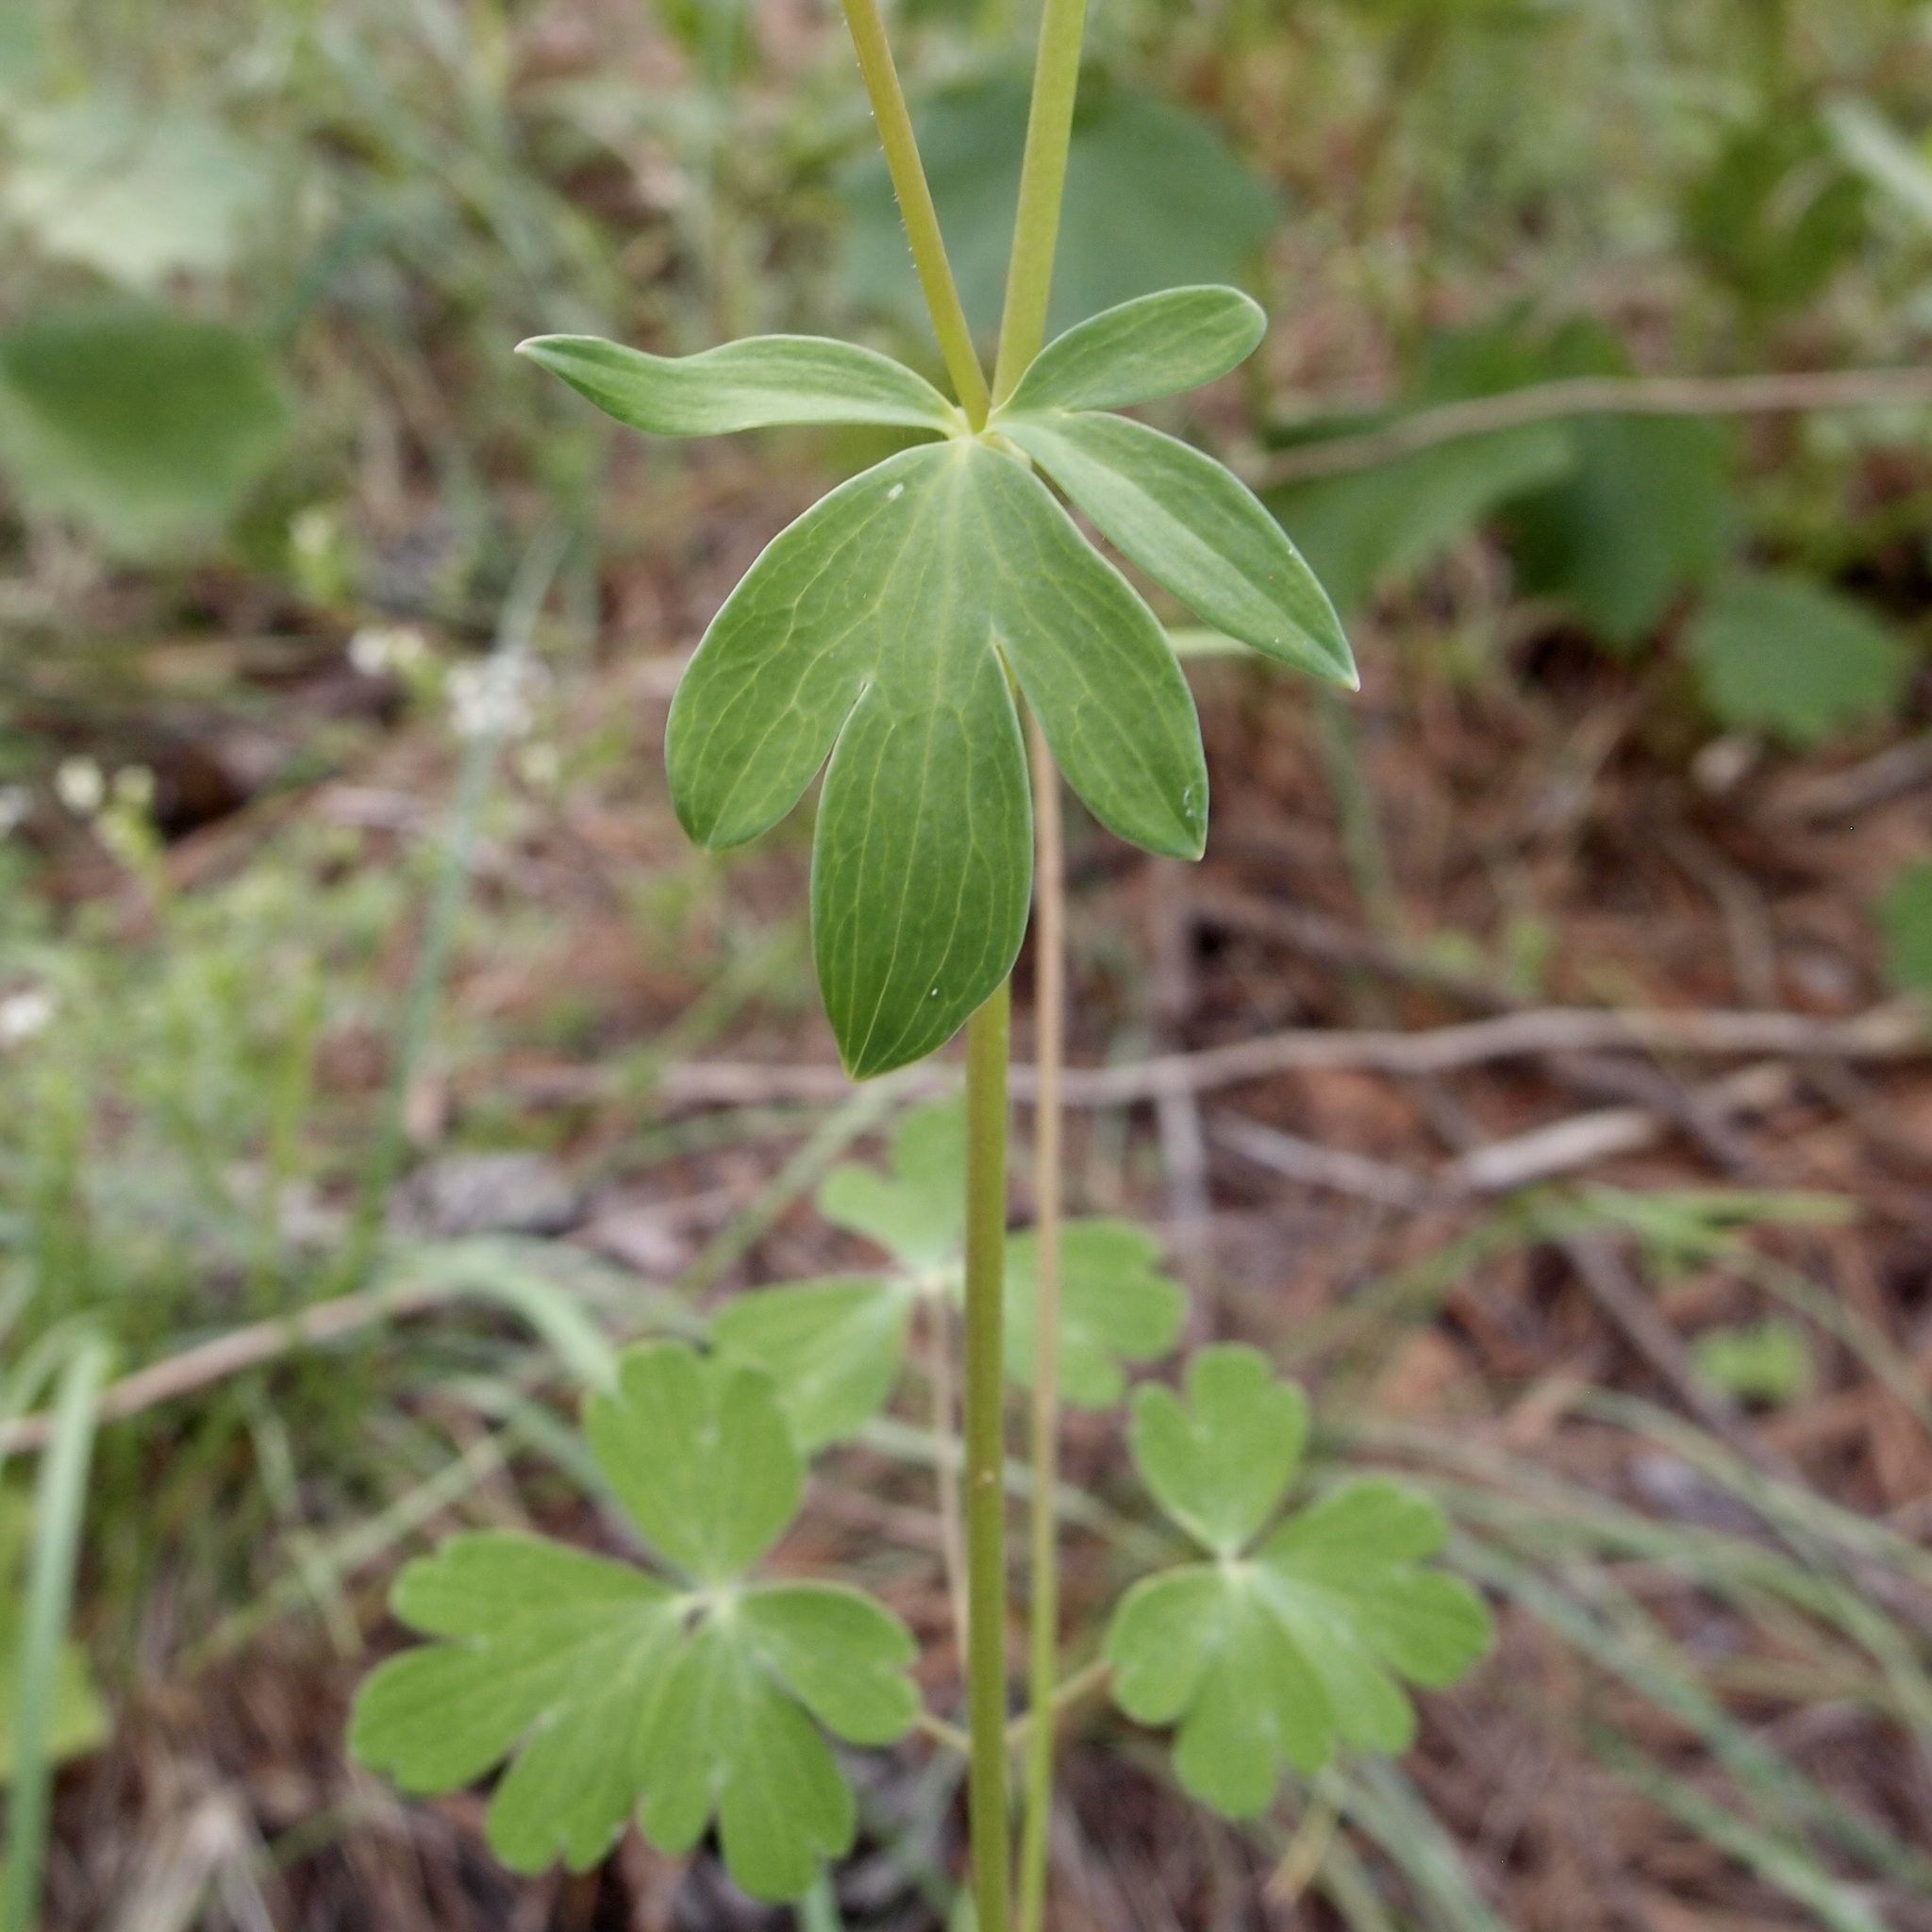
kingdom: Plantae
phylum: Tracheophyta
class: Magnoliopsida
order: Ranunculales
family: Ranunculaceae
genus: Aquilegia
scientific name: Aquilegia skinneri
